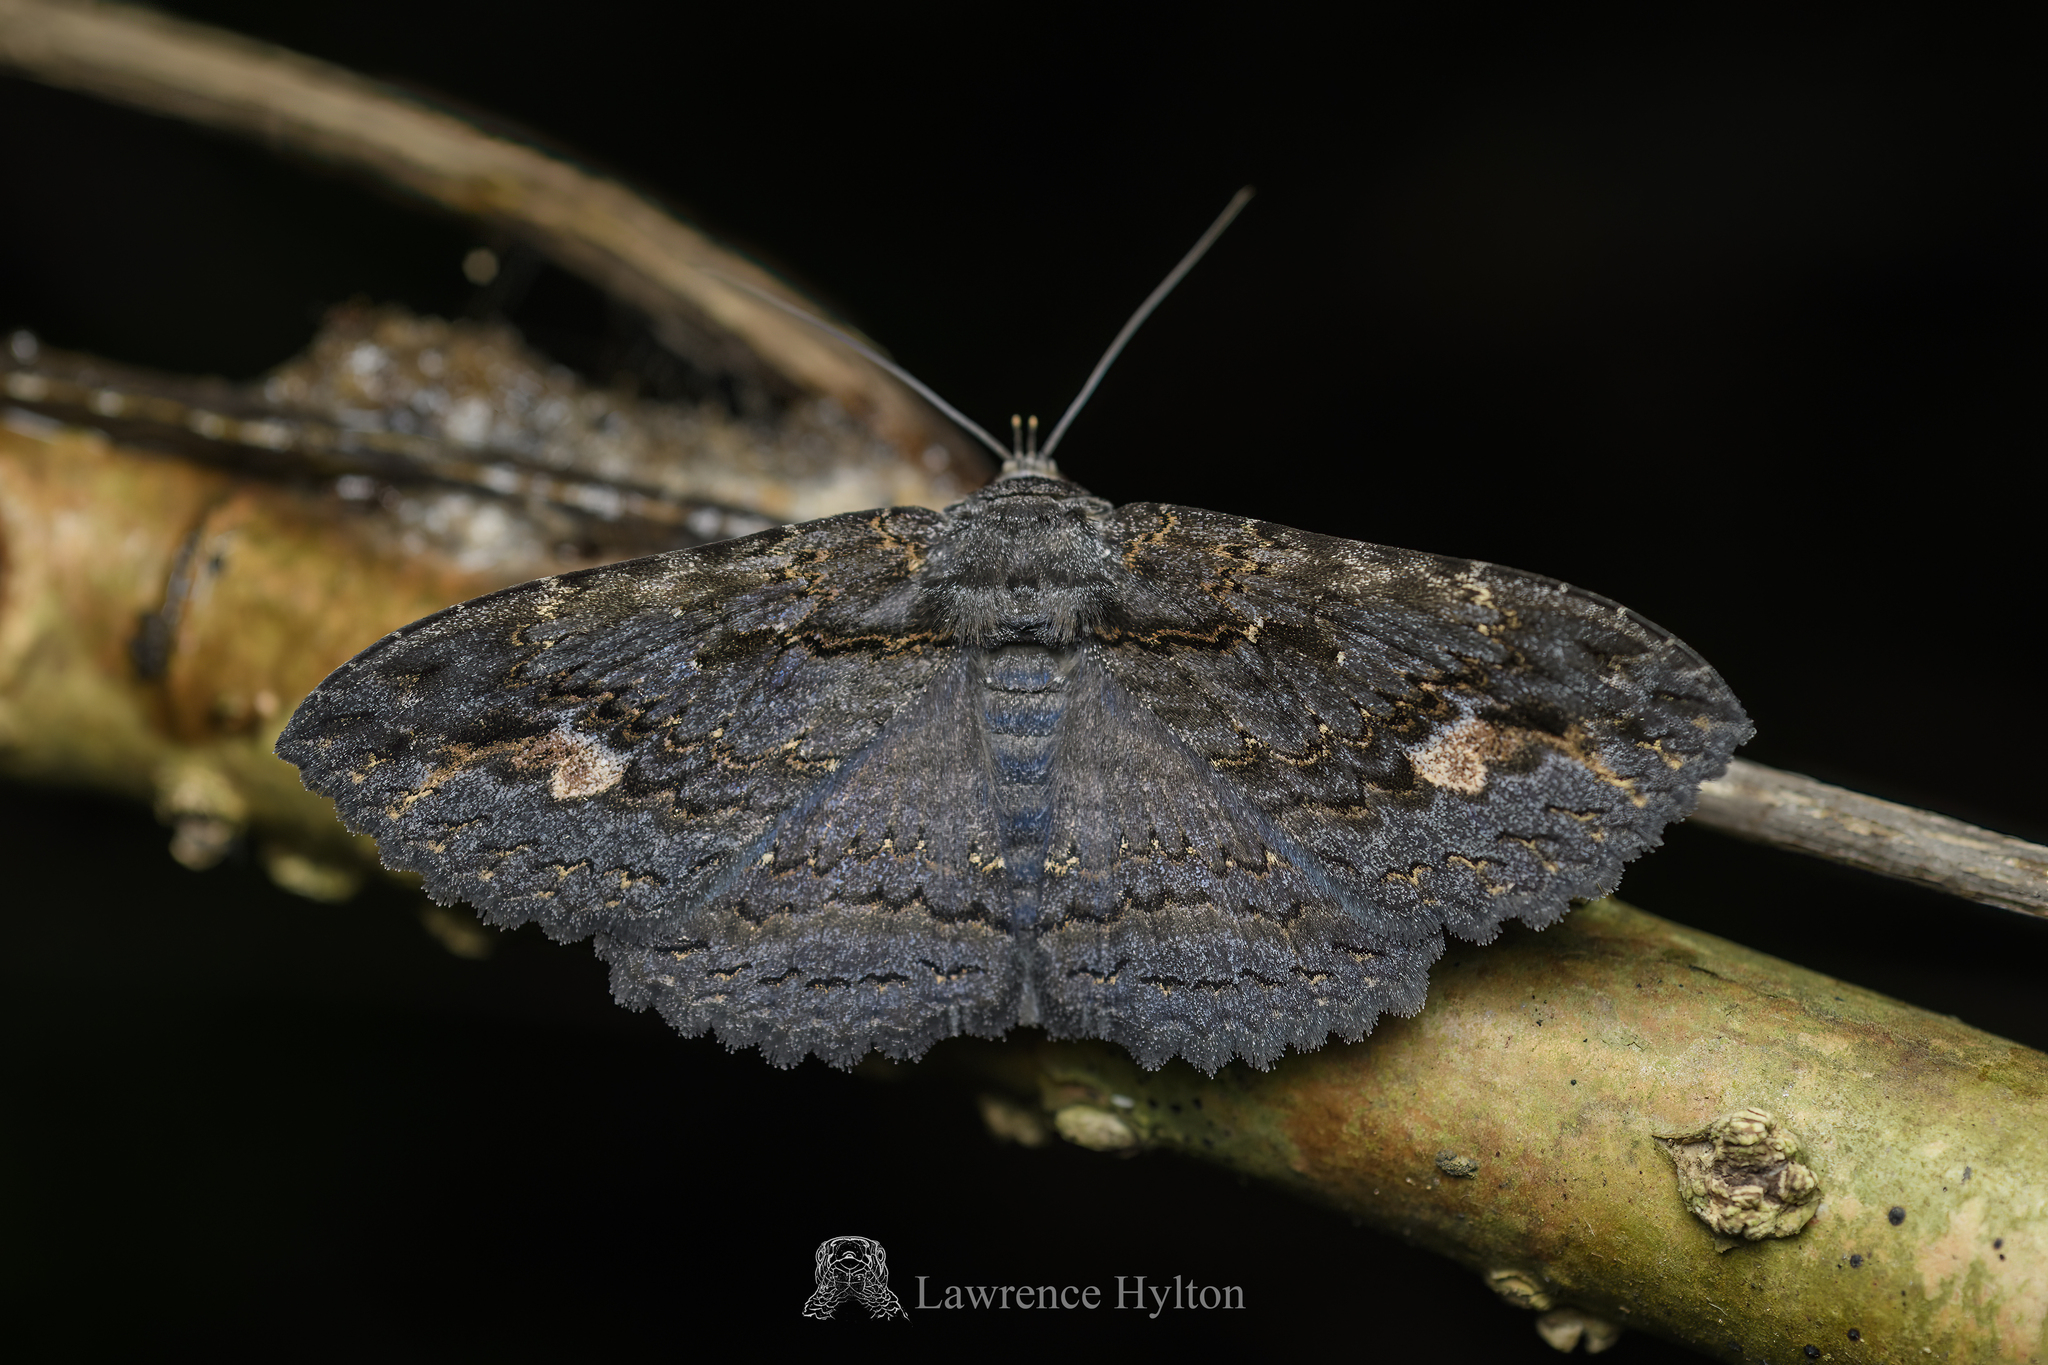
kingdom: Animalia
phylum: Arthropoda
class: Insecta
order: Lepidoptera
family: Erebidae
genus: Anisoneura
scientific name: Anisoneura salebrosa
